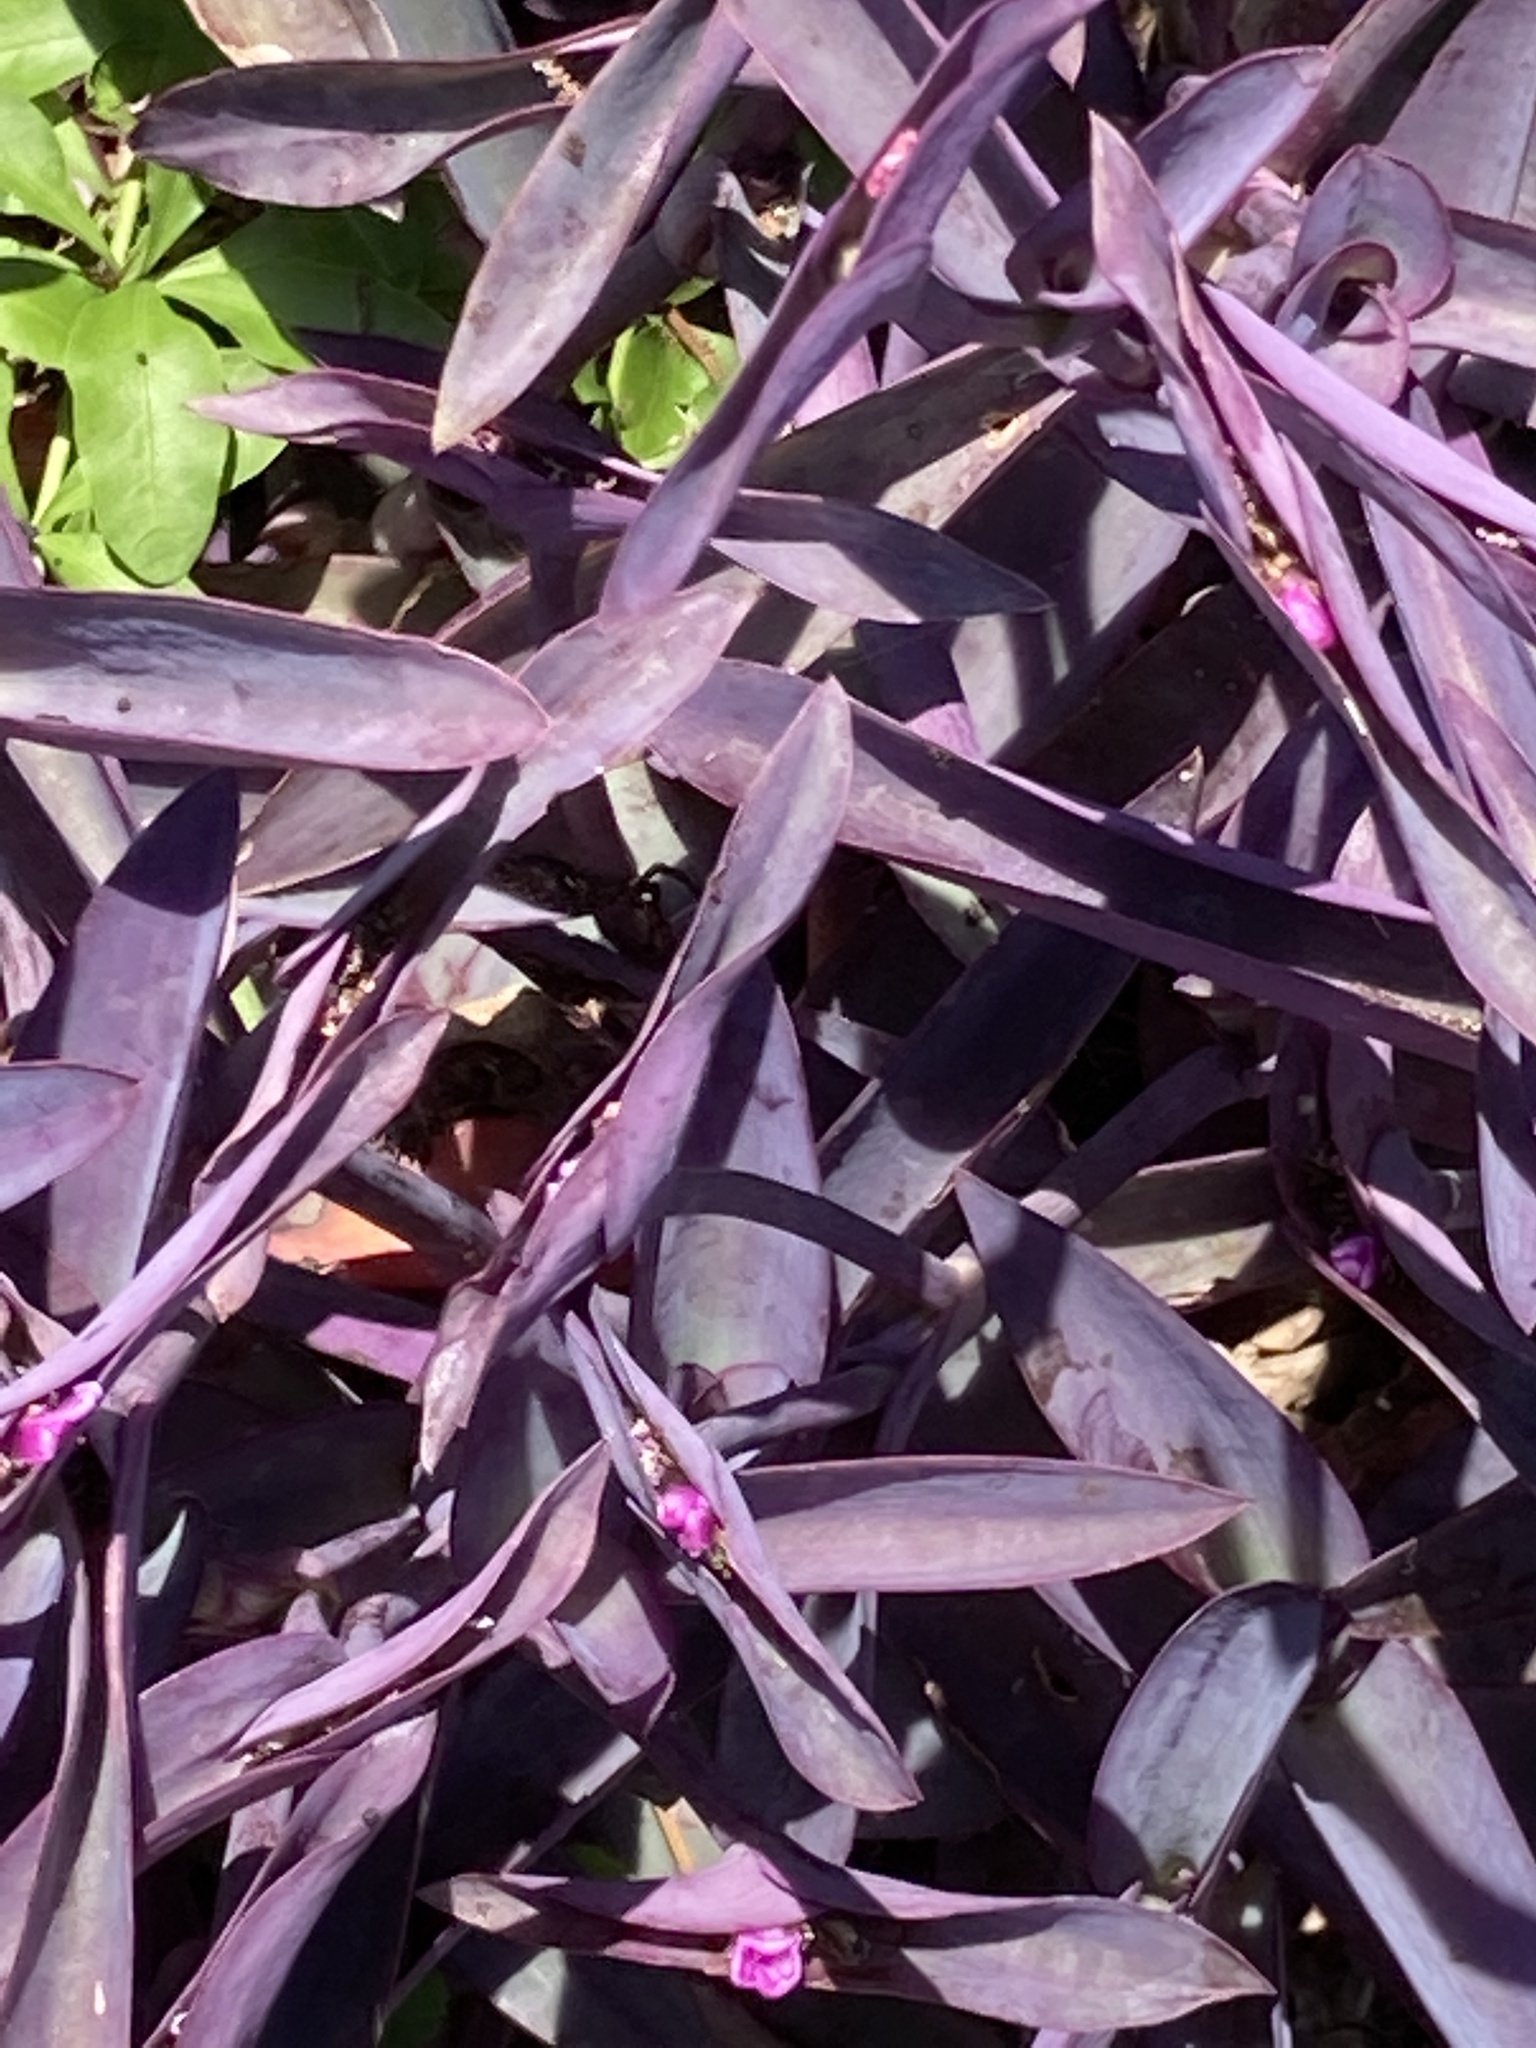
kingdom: Plantae
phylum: Tracheophyta
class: Liliopsida
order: Commelinales
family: Commelinaceae
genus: Tradescantia
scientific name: Tradescantia pallida
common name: Purpleheart
